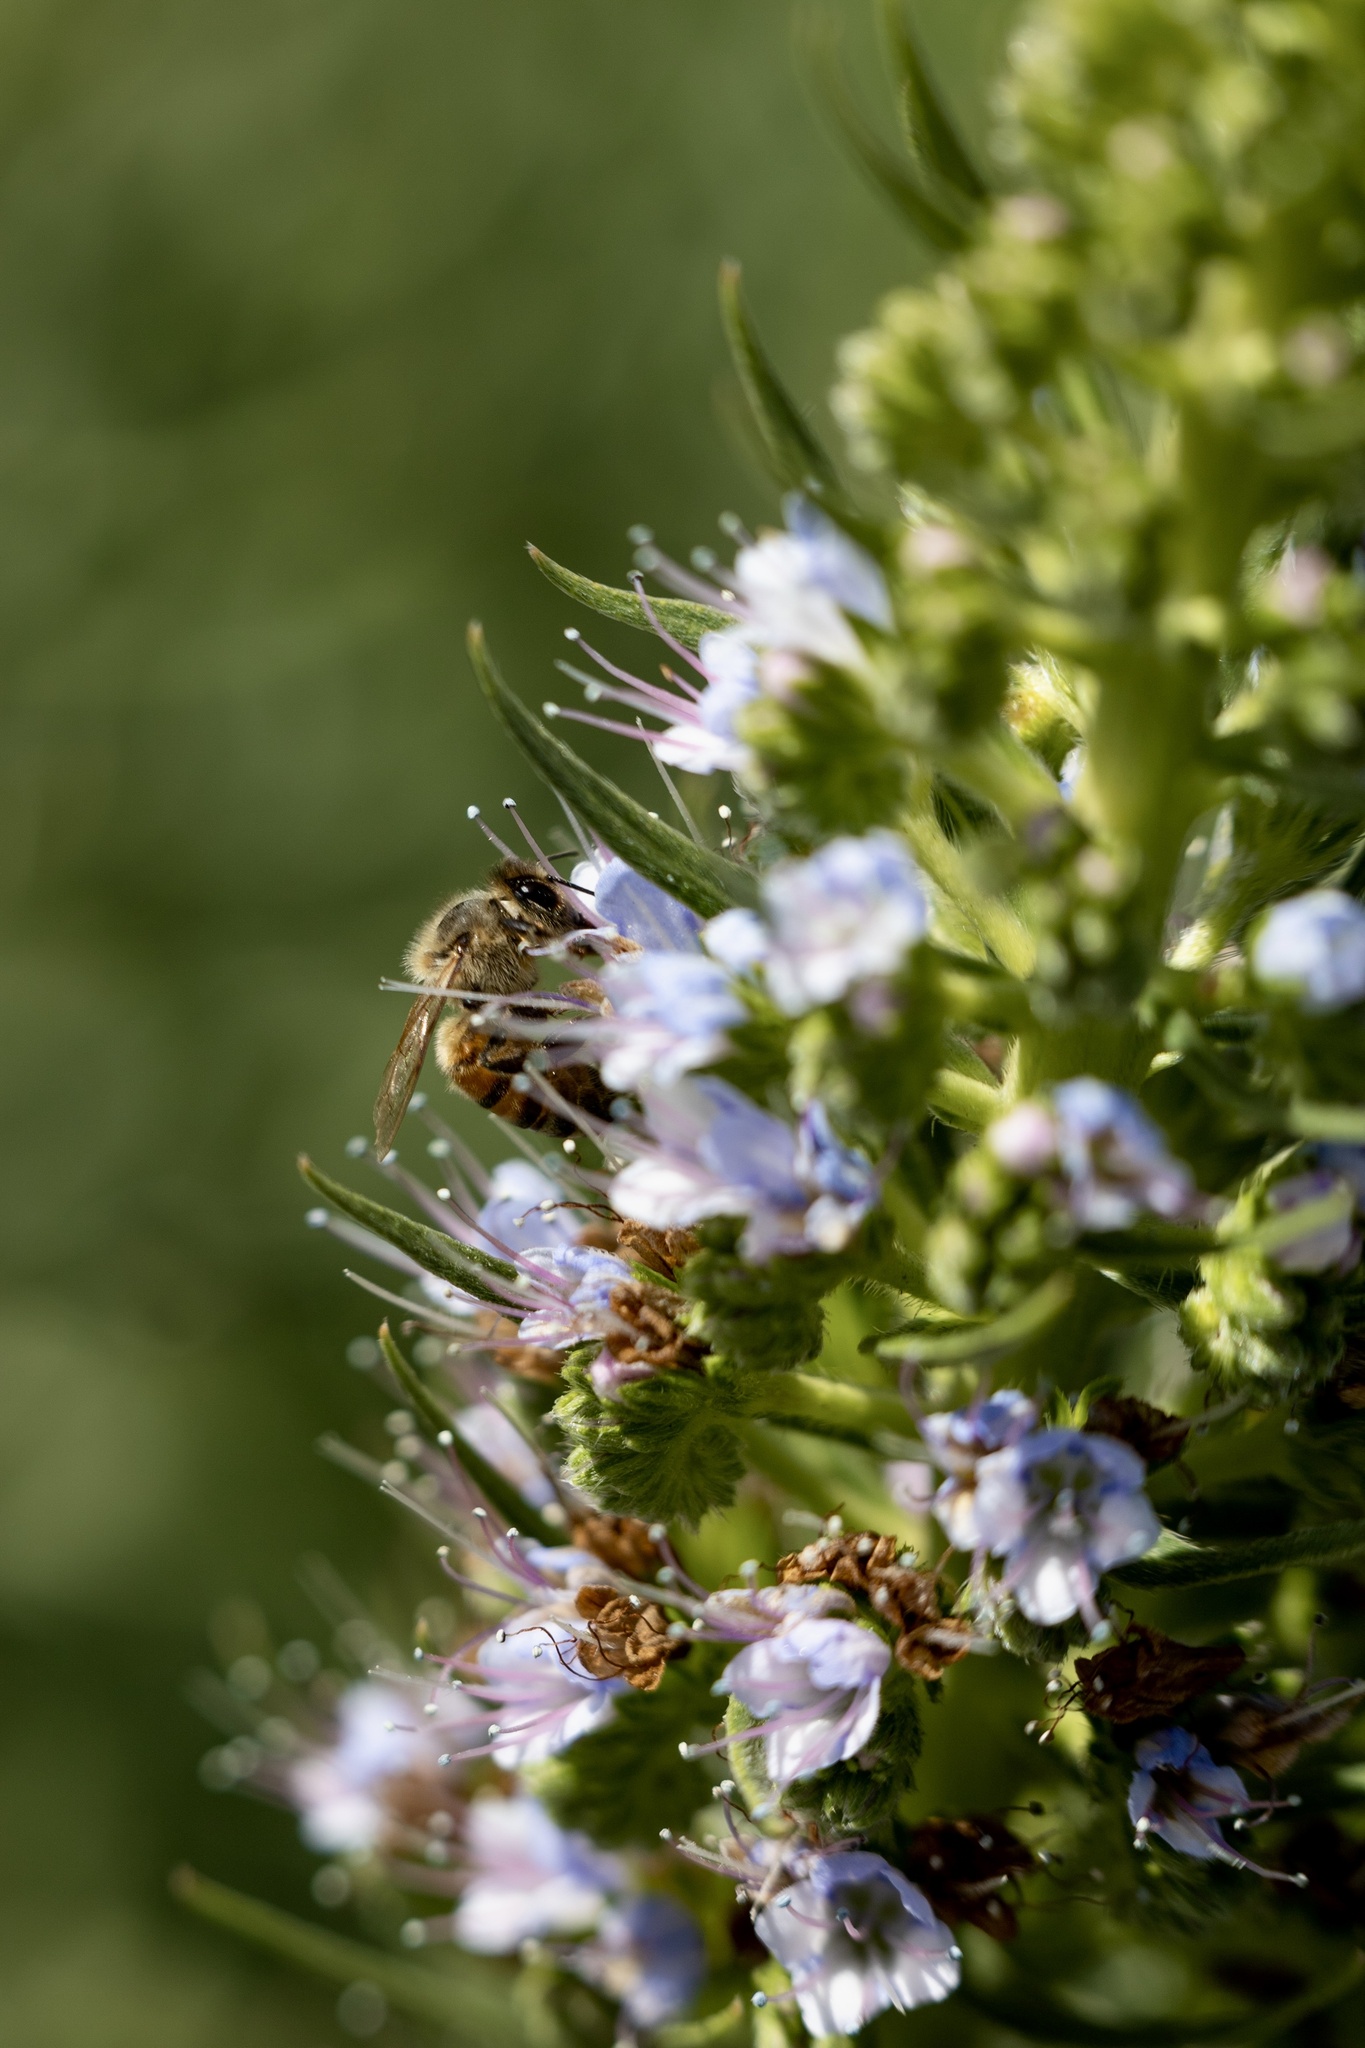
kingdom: Animalia
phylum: Arthropoda
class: Insecta
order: Hymenoptera
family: Apidae
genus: Apis
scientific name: Apis mellifera
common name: Honey bee
